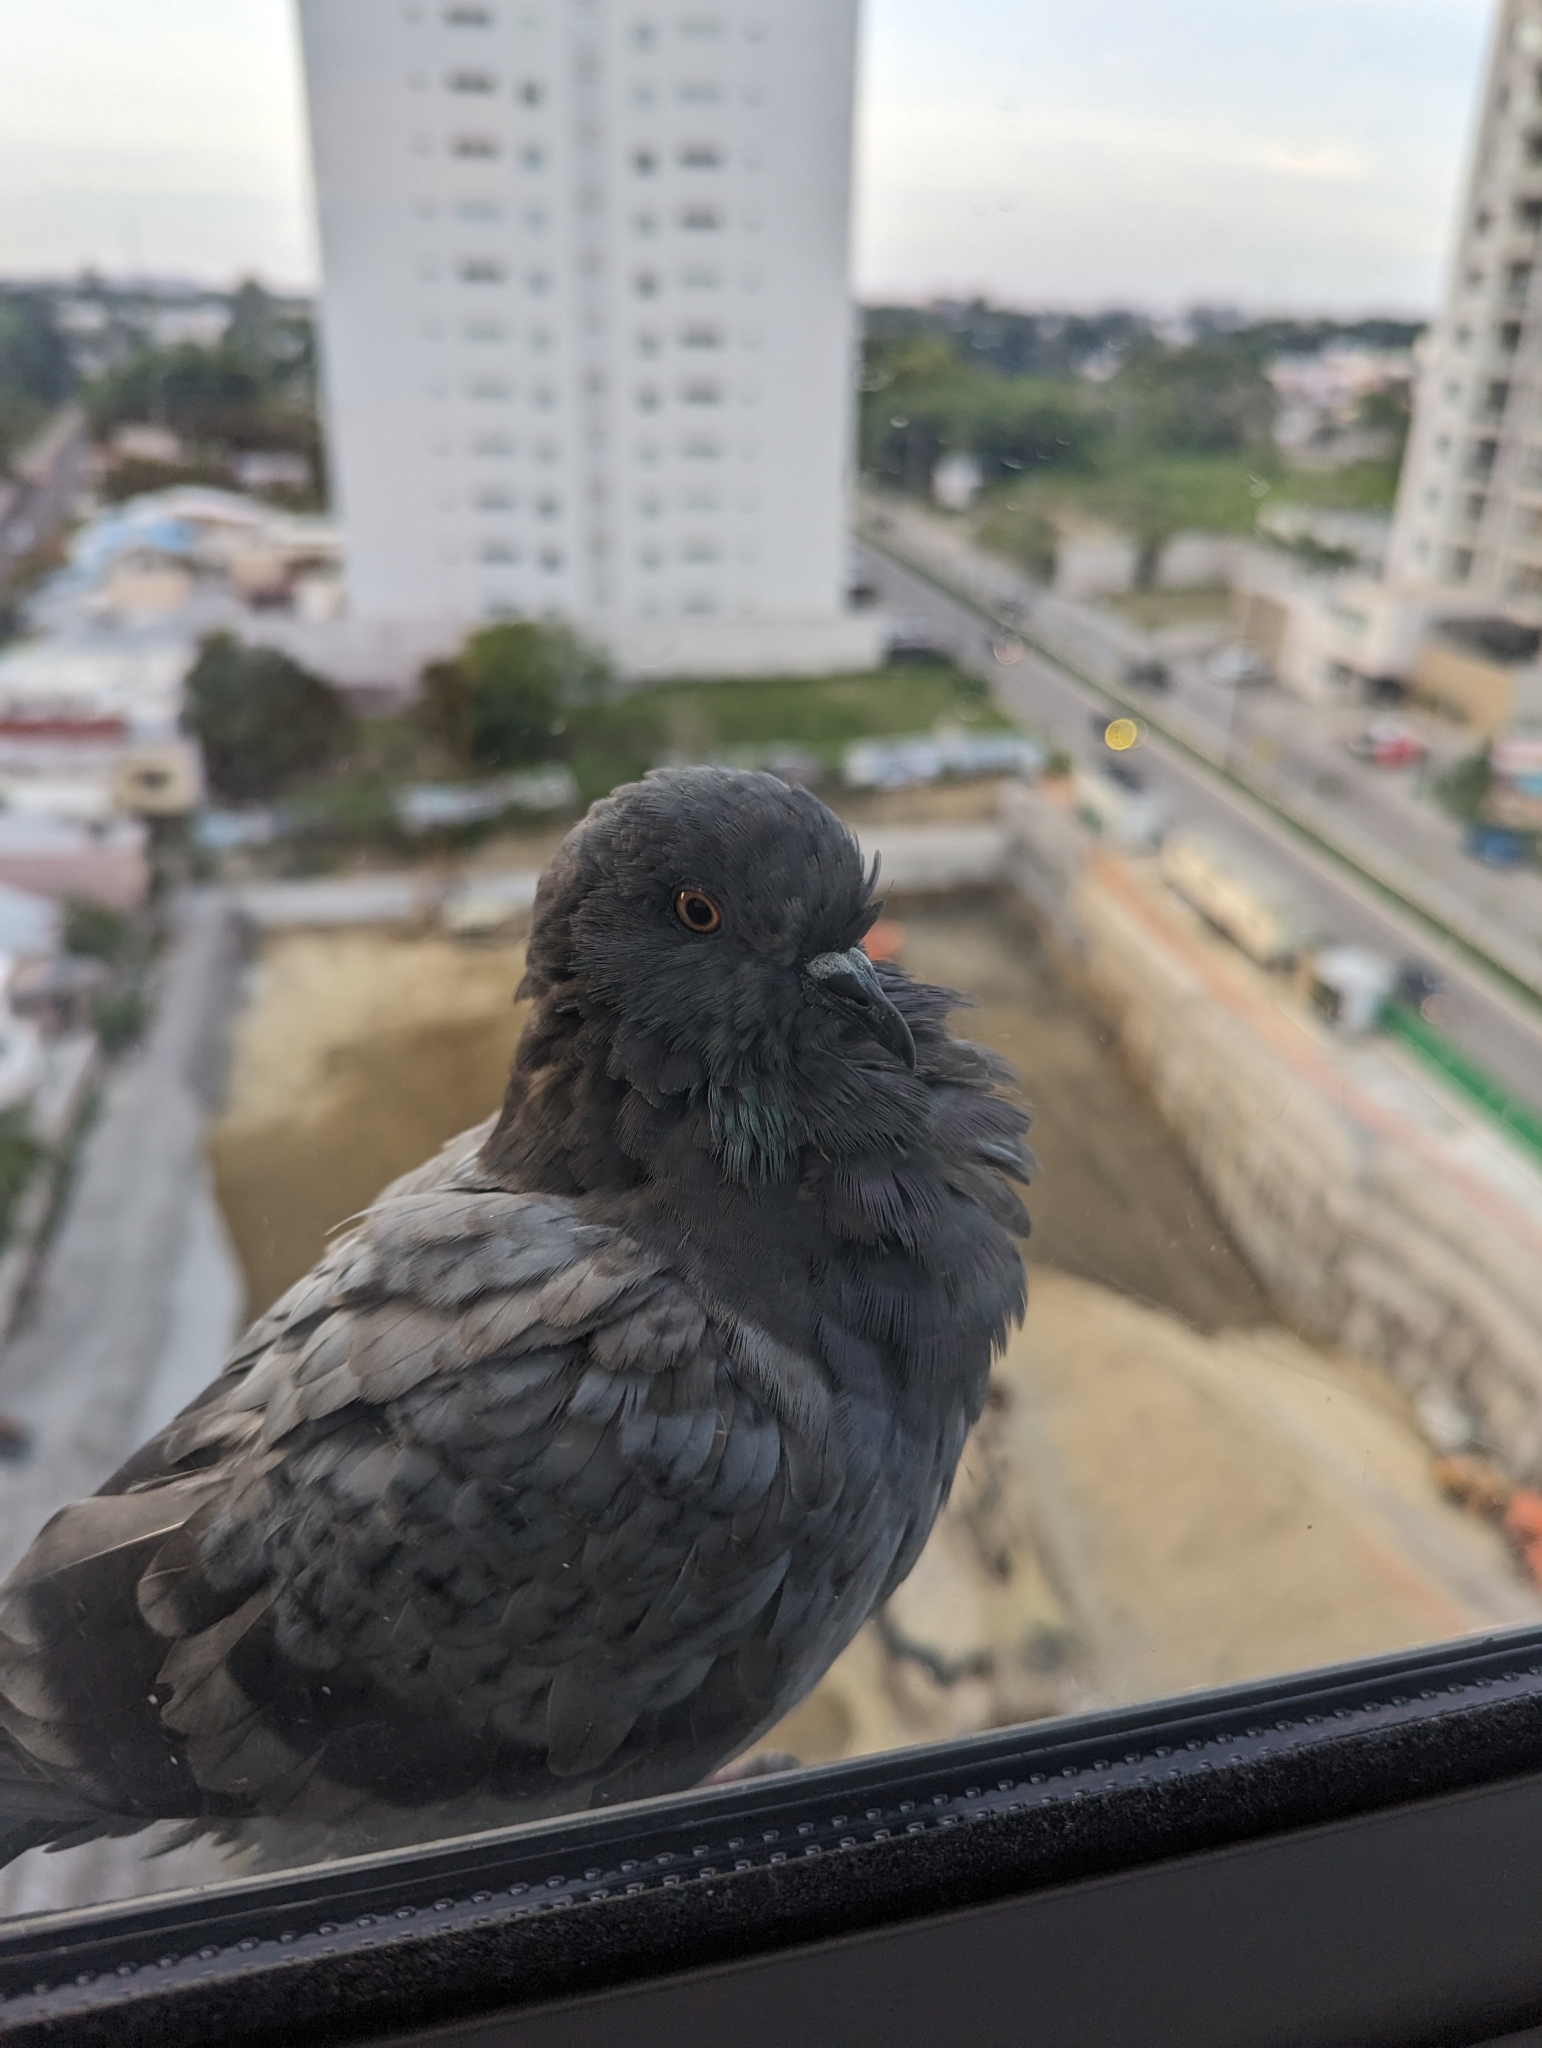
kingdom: Animalia
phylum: Chordata
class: Aves
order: Columbiformes
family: Columbidae
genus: Columba
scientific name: Columba livia
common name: Rock pigeon
